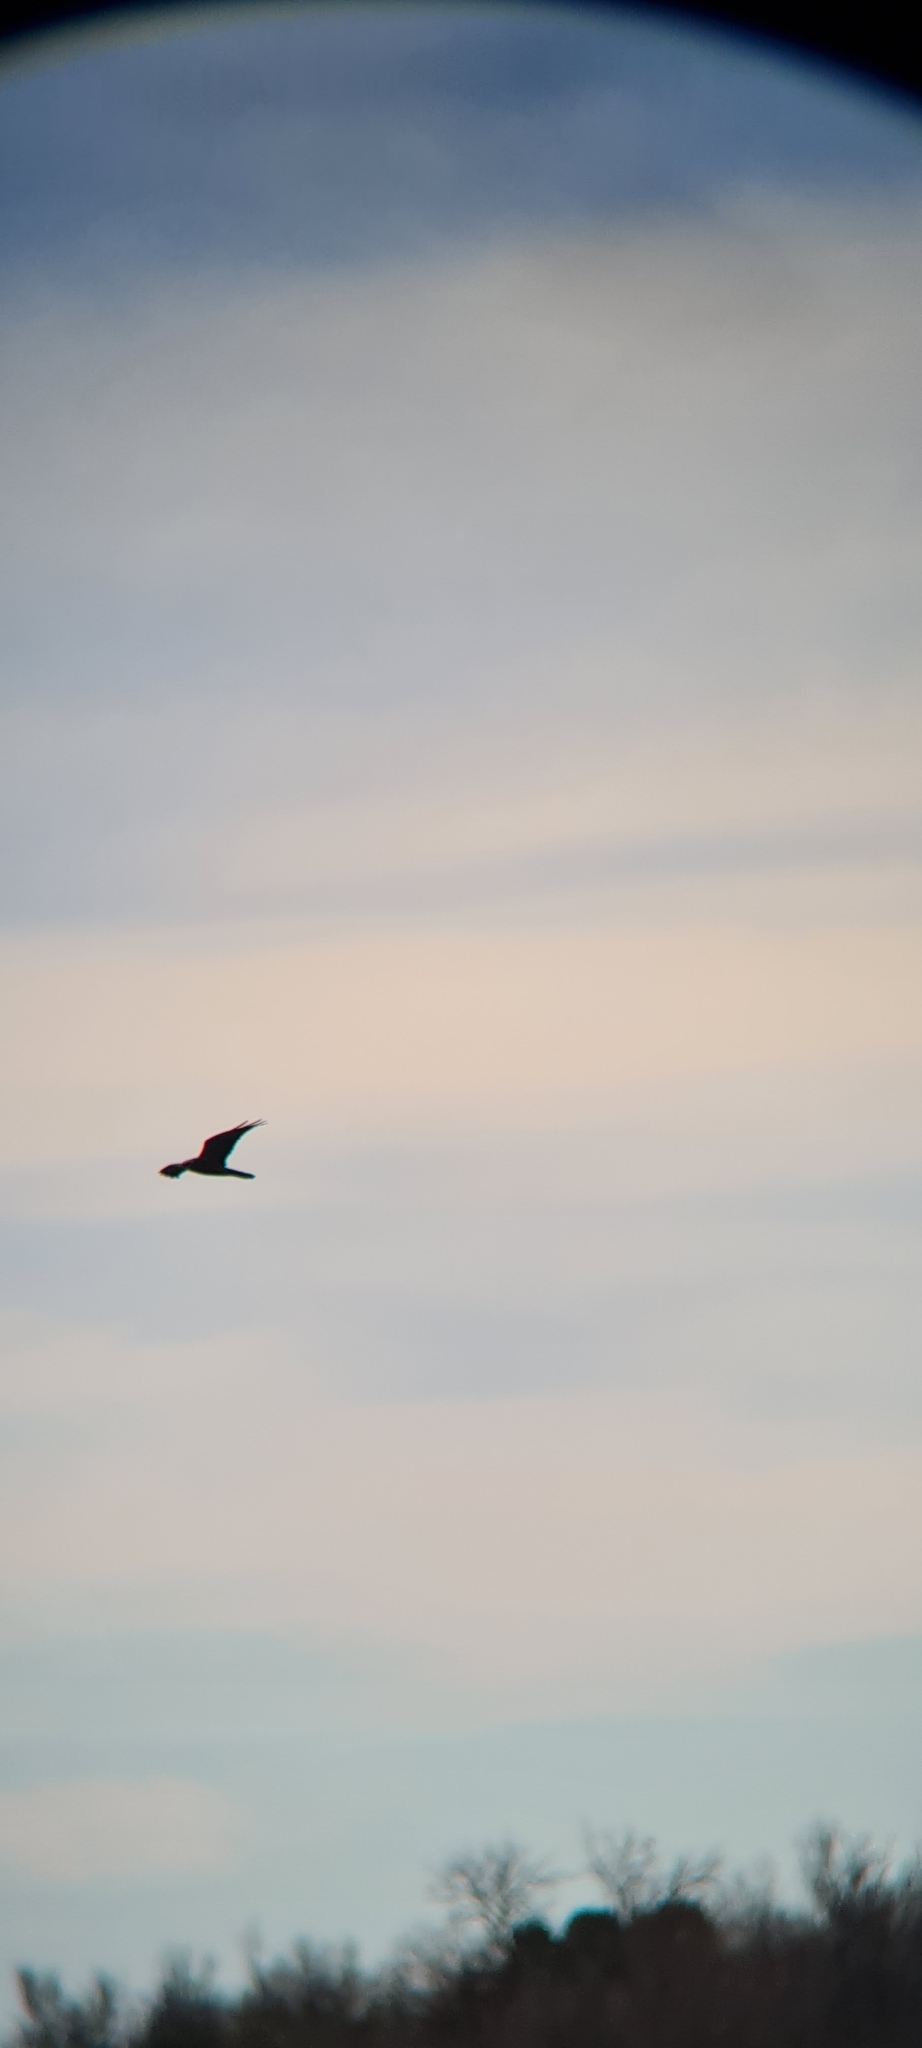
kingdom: Animalia
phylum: Chordata
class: Aves
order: Accipitriformes
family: Accipitridae
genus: Circus
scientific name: Circus aeruginosus
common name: Western marsh harrier
